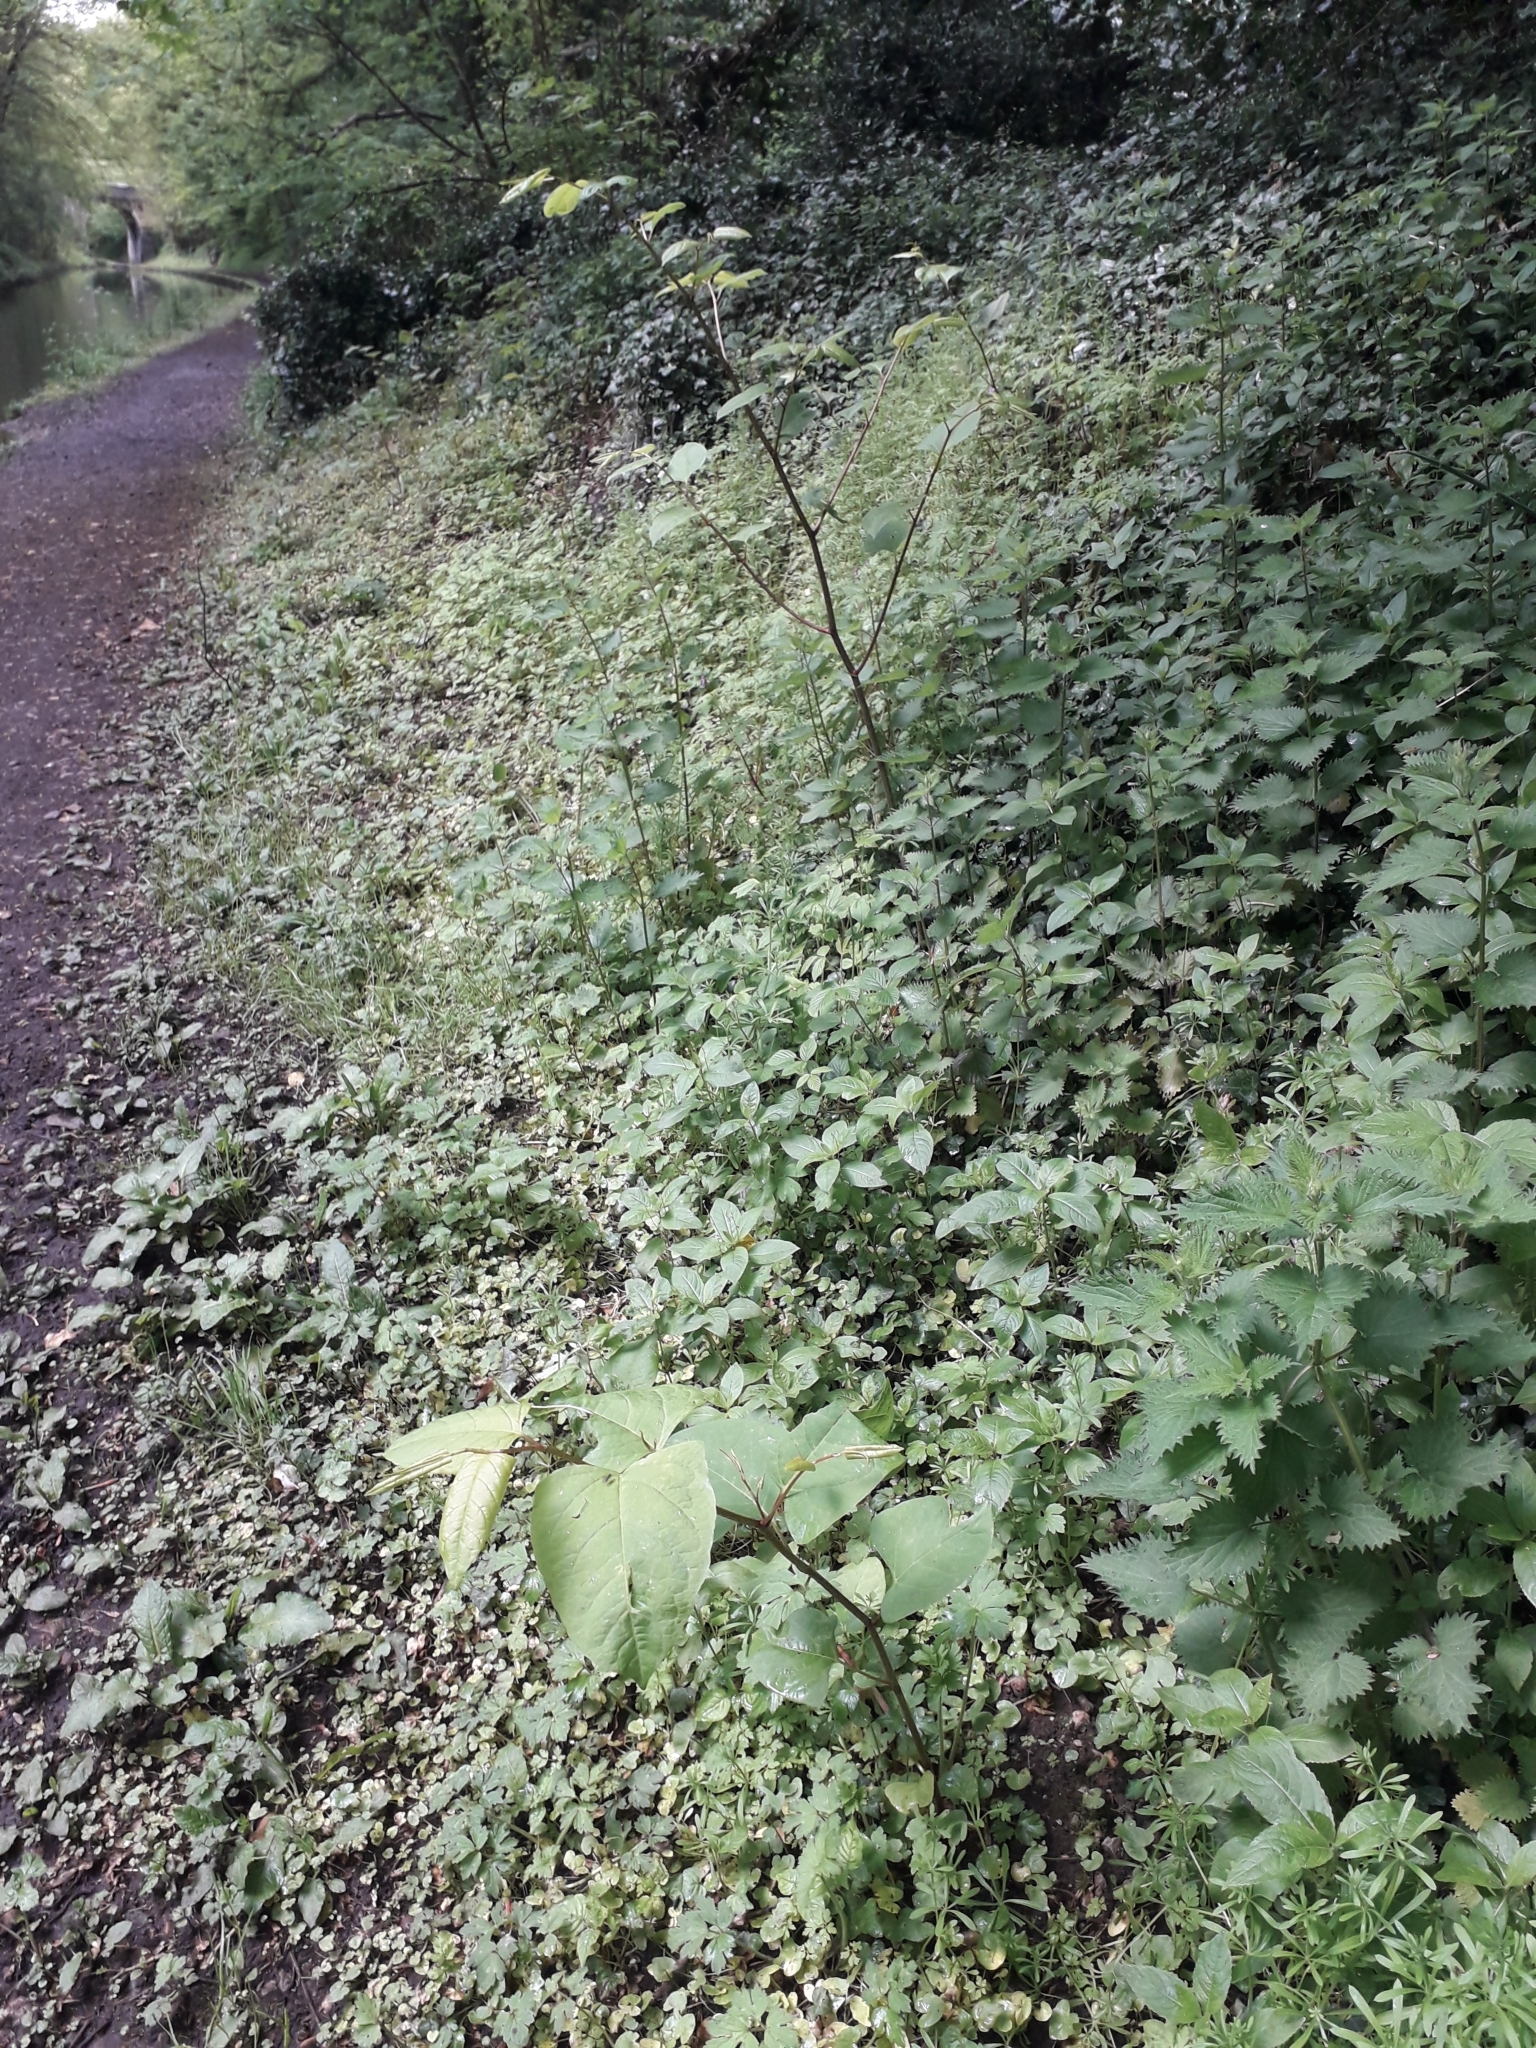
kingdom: Plantae
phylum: Tracheophyta
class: Magnoliopsida
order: Caryophyllales
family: Polygonaceae
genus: Reynoutria
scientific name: Reynoutria japonica
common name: Japanese knotweed
